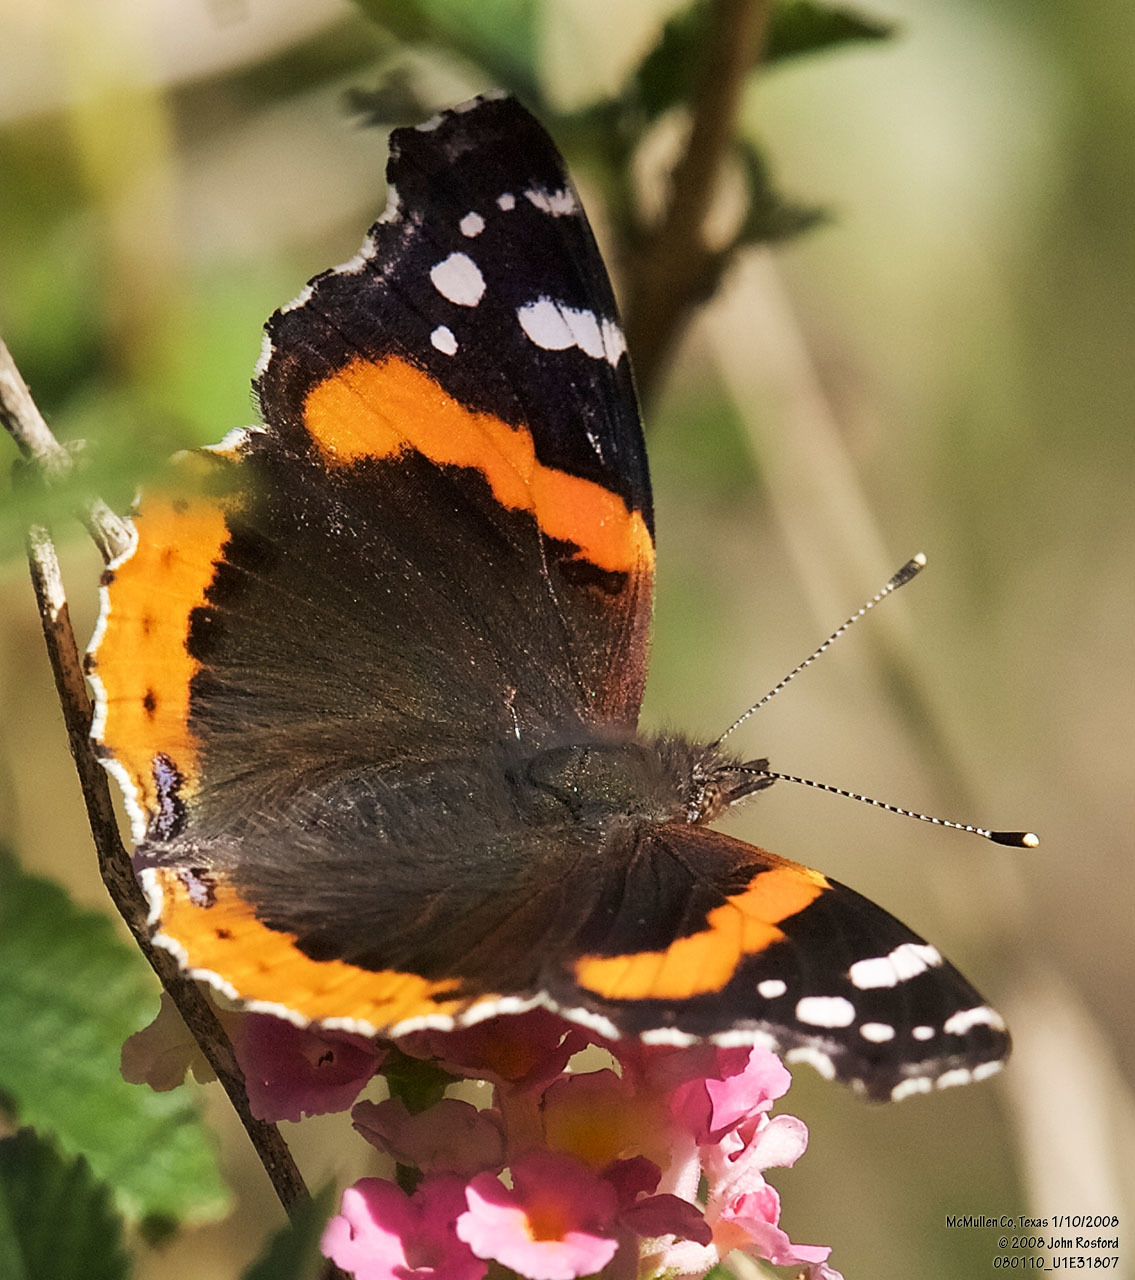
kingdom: Animalia
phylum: Arthropoda
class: Insecta
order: Lepidoptera
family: Nymphalidae
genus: Vanessa
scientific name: Vanessa atalanta
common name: Red admiral
